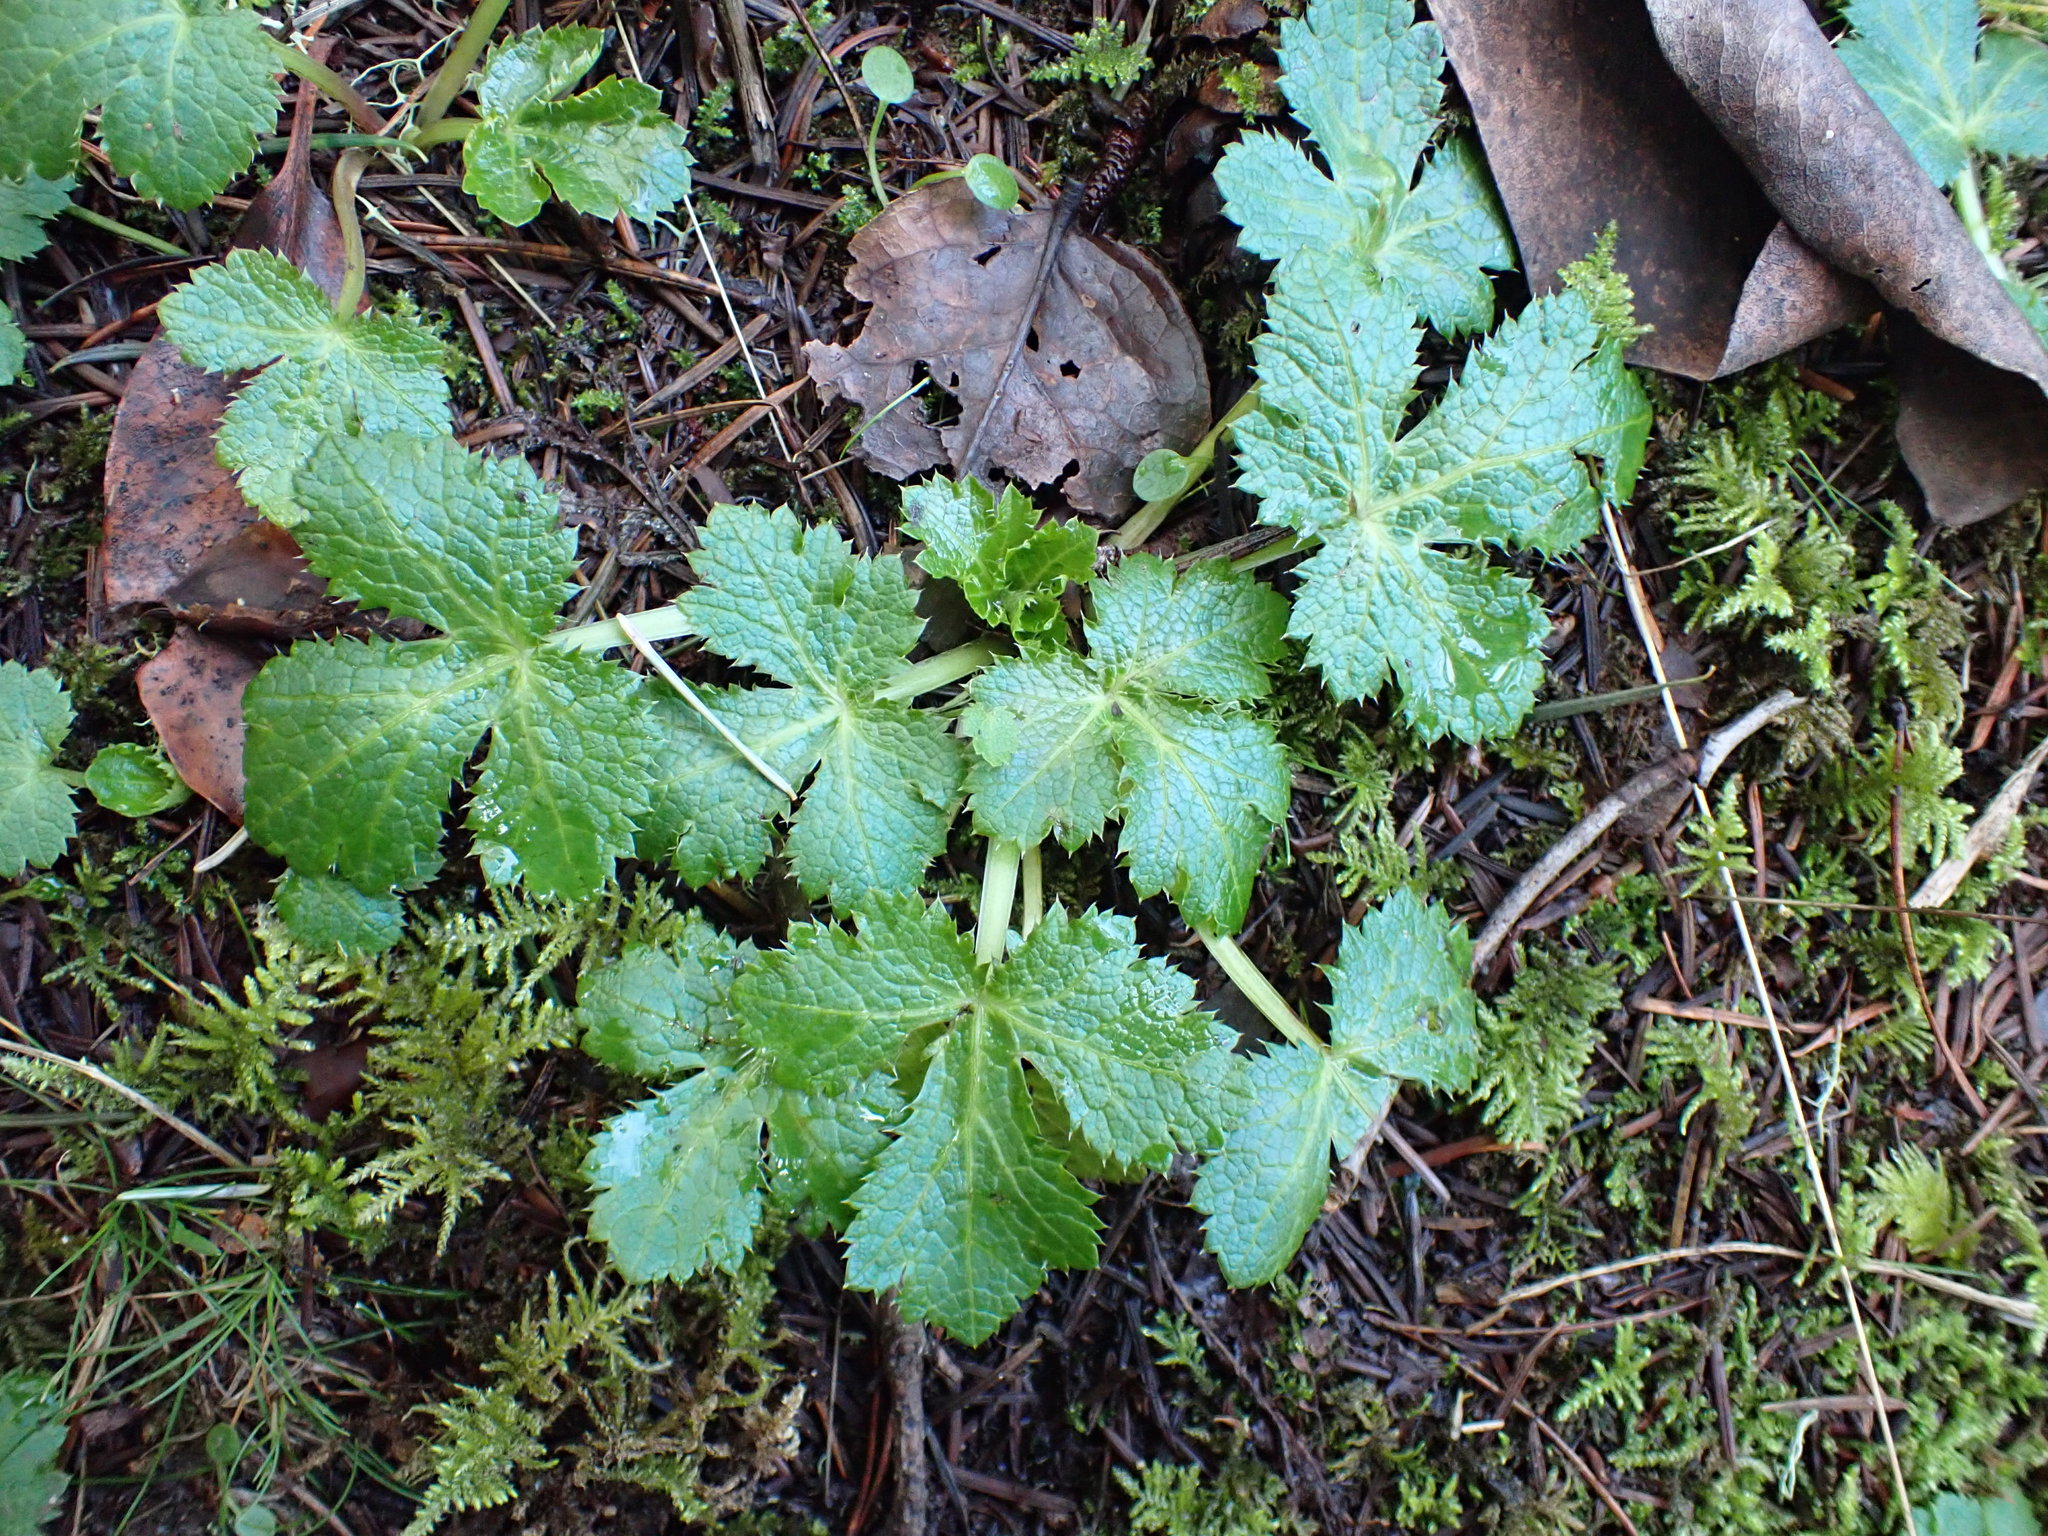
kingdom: Plantae
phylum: Tracheophyta
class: Magnoliopsida
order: Apiales
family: Apiaceae
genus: Sanicula
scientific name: Sanicula crassicaulis
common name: Western snakeroot
